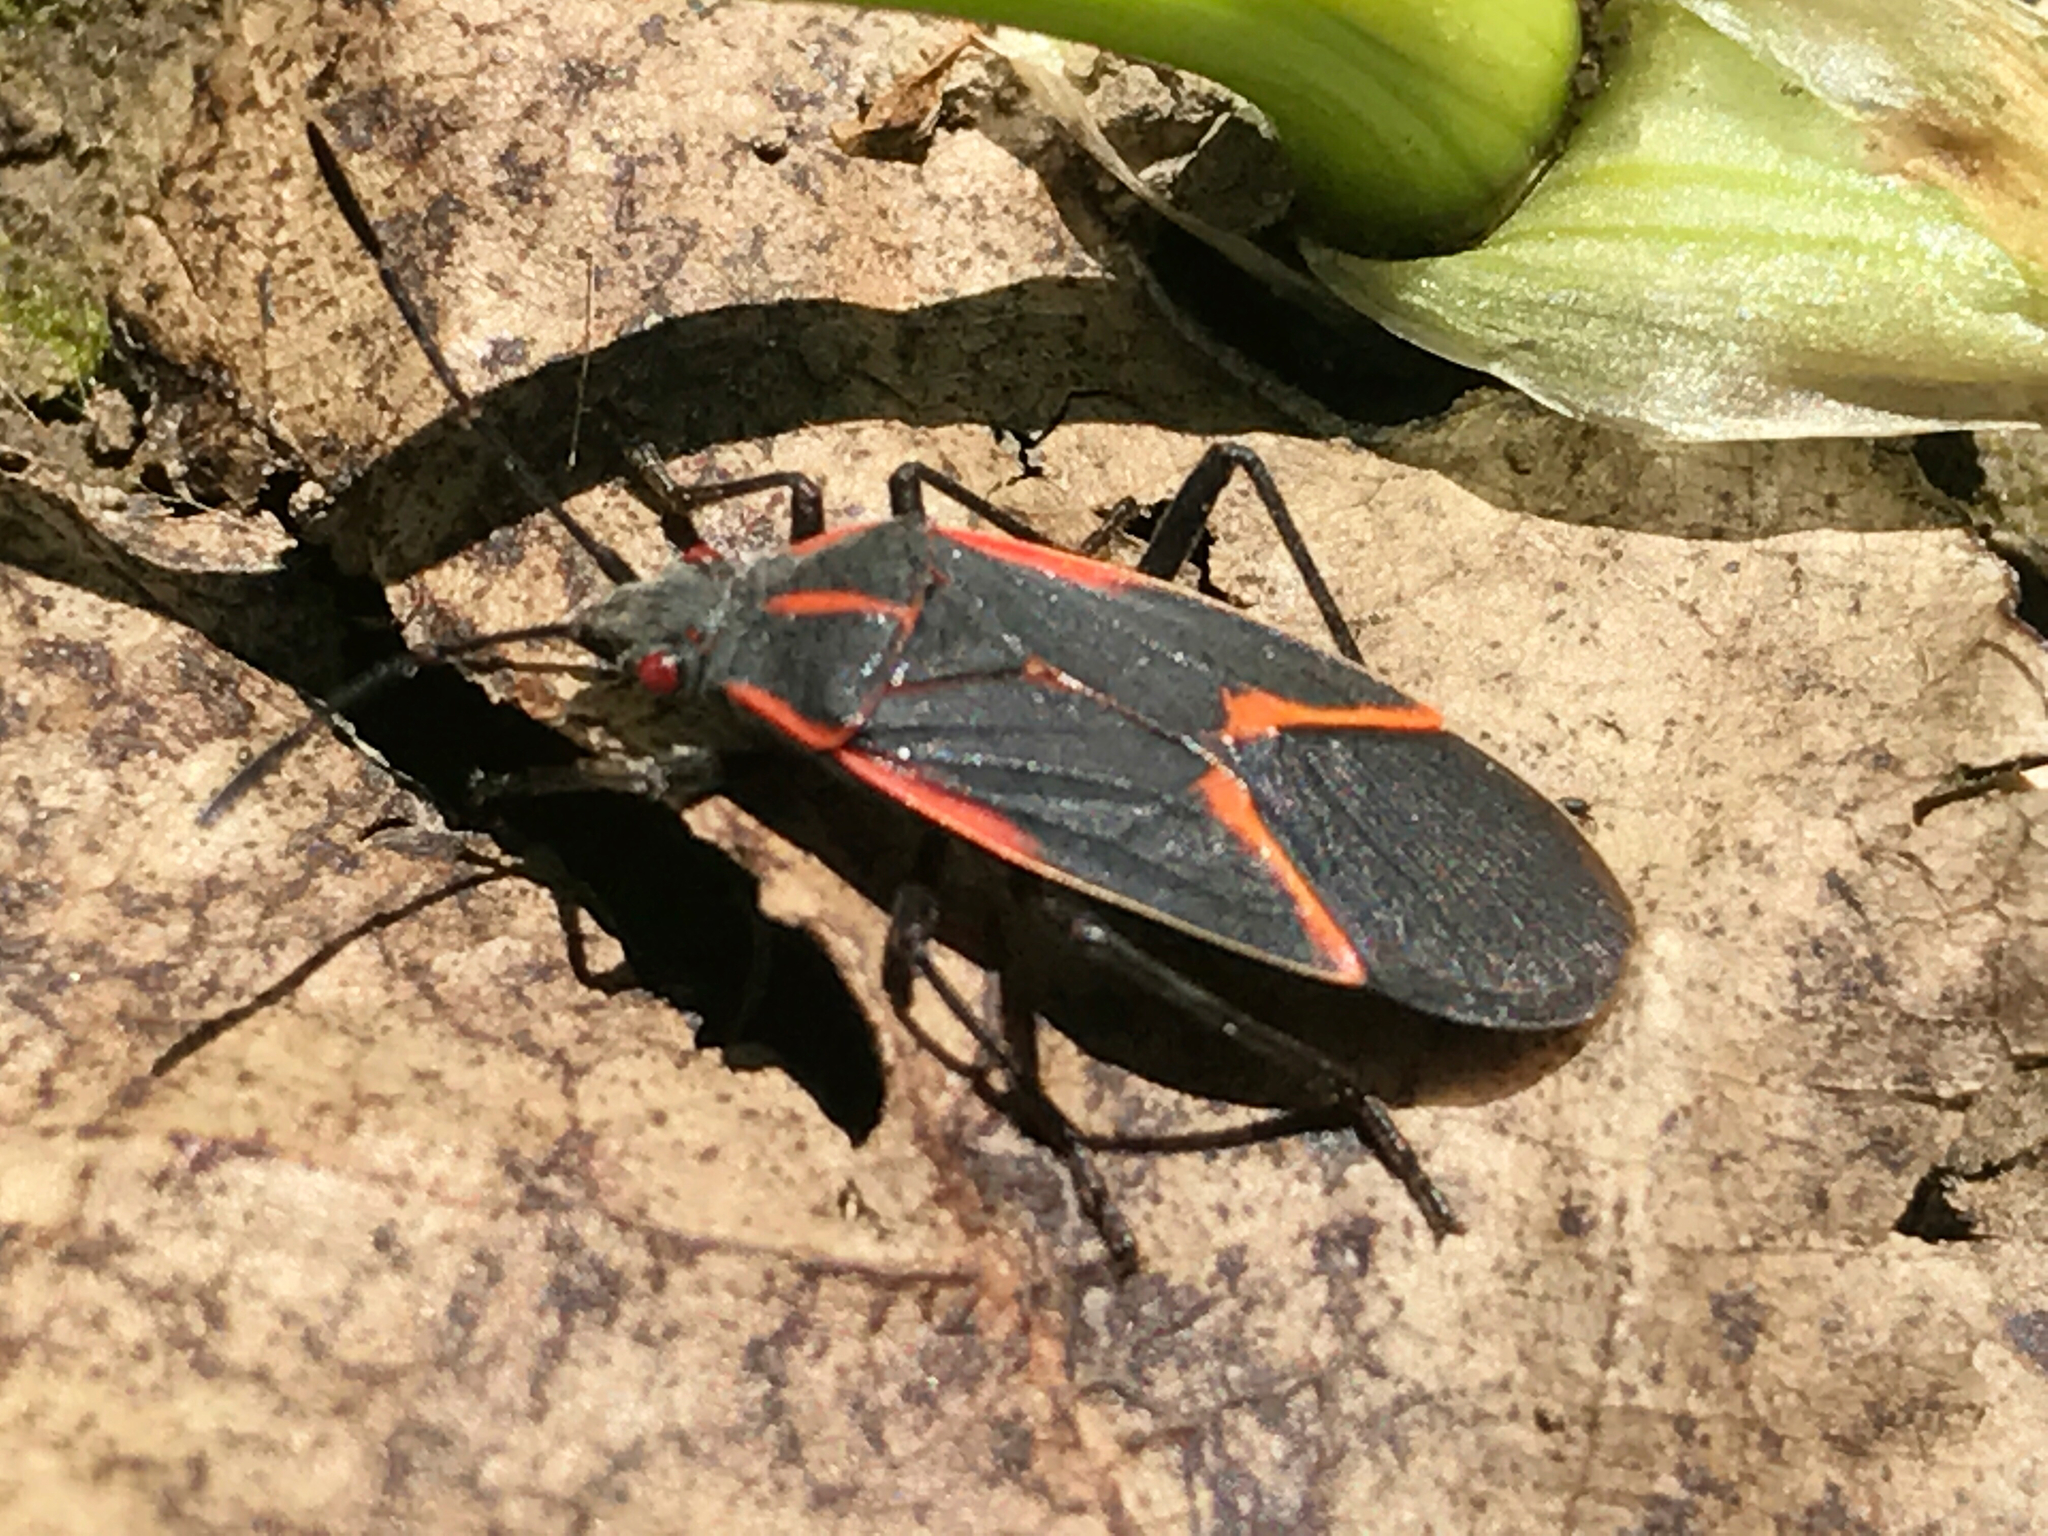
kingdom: Animalia
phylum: Arthropoda
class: Insecta
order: Hemiptera
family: Rhopalidae
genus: Boisea
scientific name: Boisea trivittata
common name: Boxelder bug
